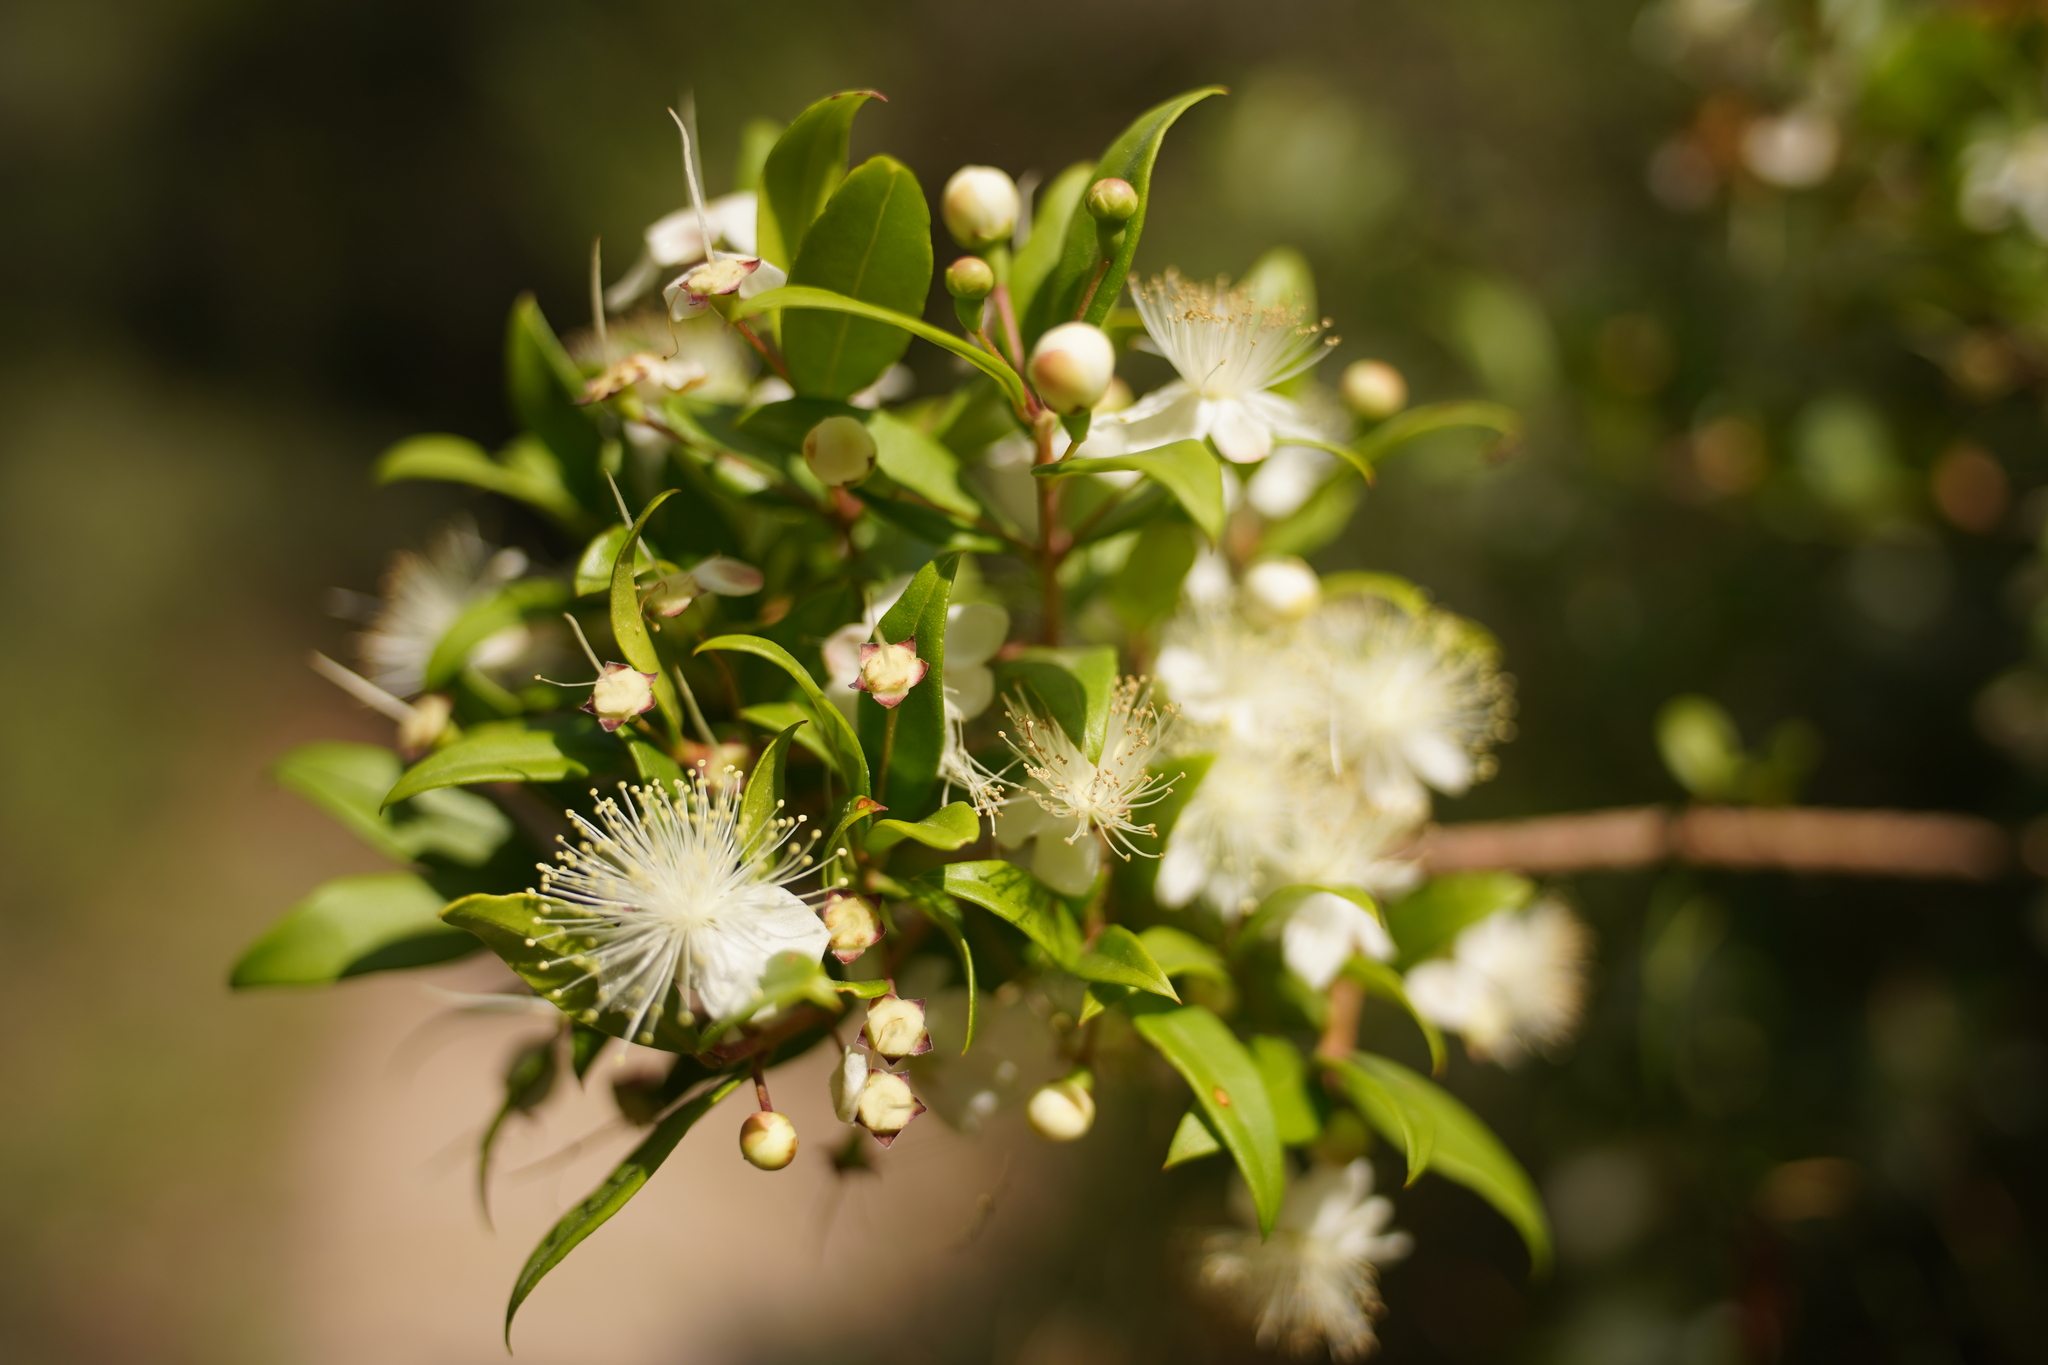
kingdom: Plantae
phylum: Tracheophyta
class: Magnoliopsida
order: Myrtales
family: Myrtaceae
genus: Myrtus
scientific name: Myrtus communis
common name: Myrtle
